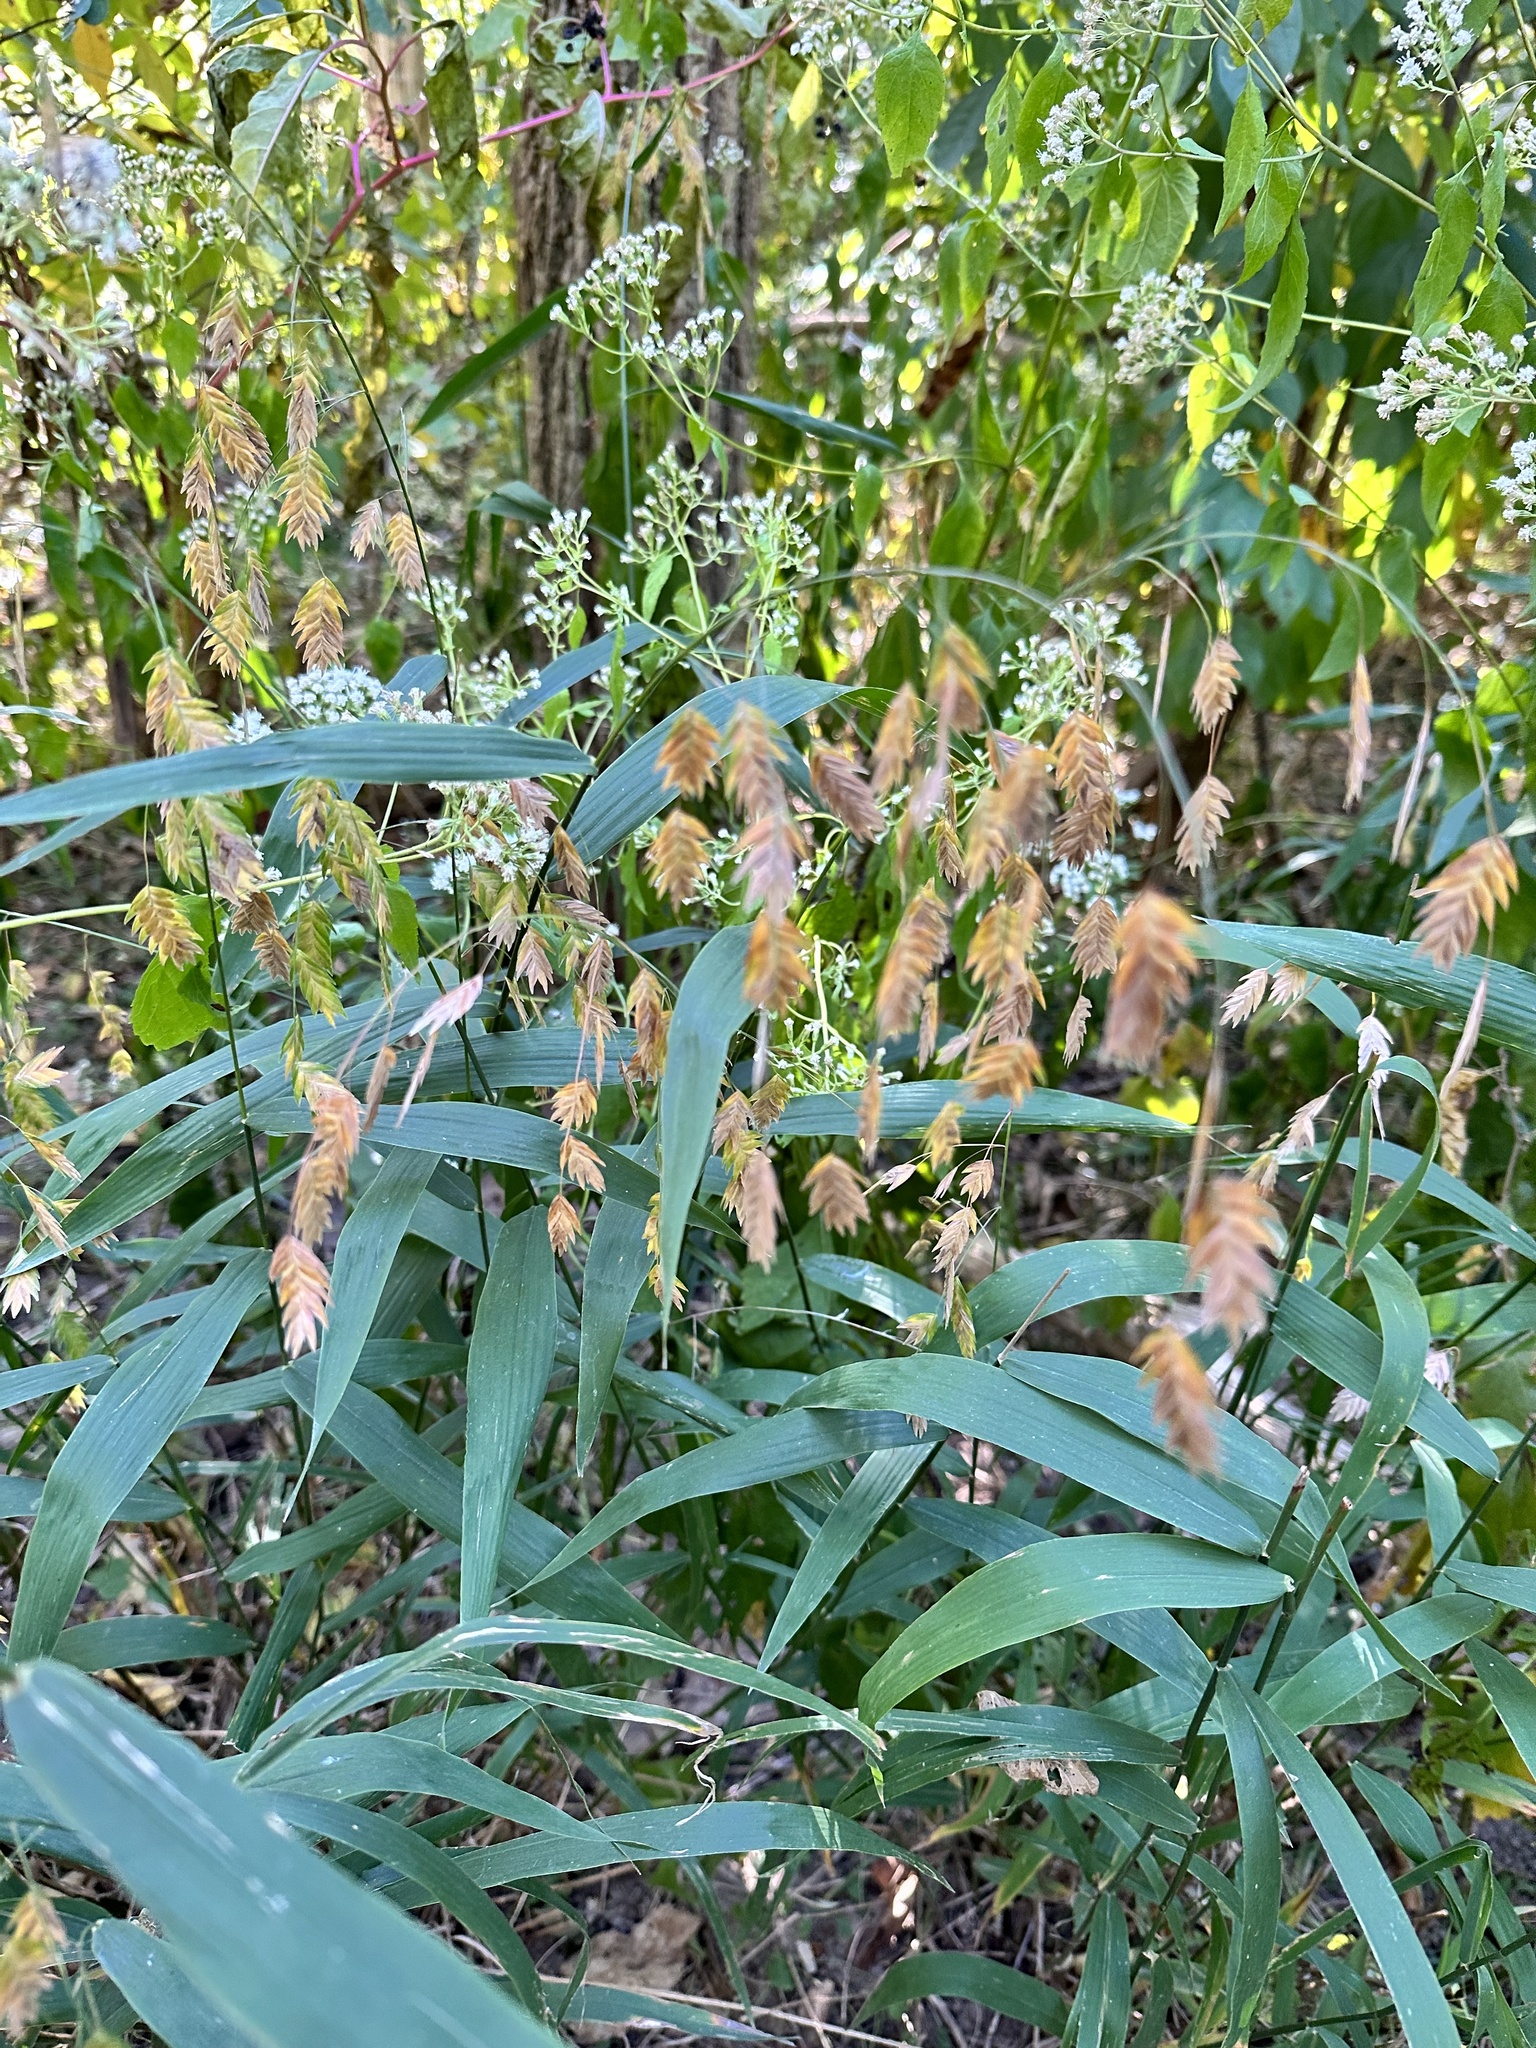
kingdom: Plantae
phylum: Tracheophyta
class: Liliopsida
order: Poales
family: Poaceae
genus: Chasmanthium
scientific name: Chasmanthium latifolium
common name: Broad-leaved chasmanthium
